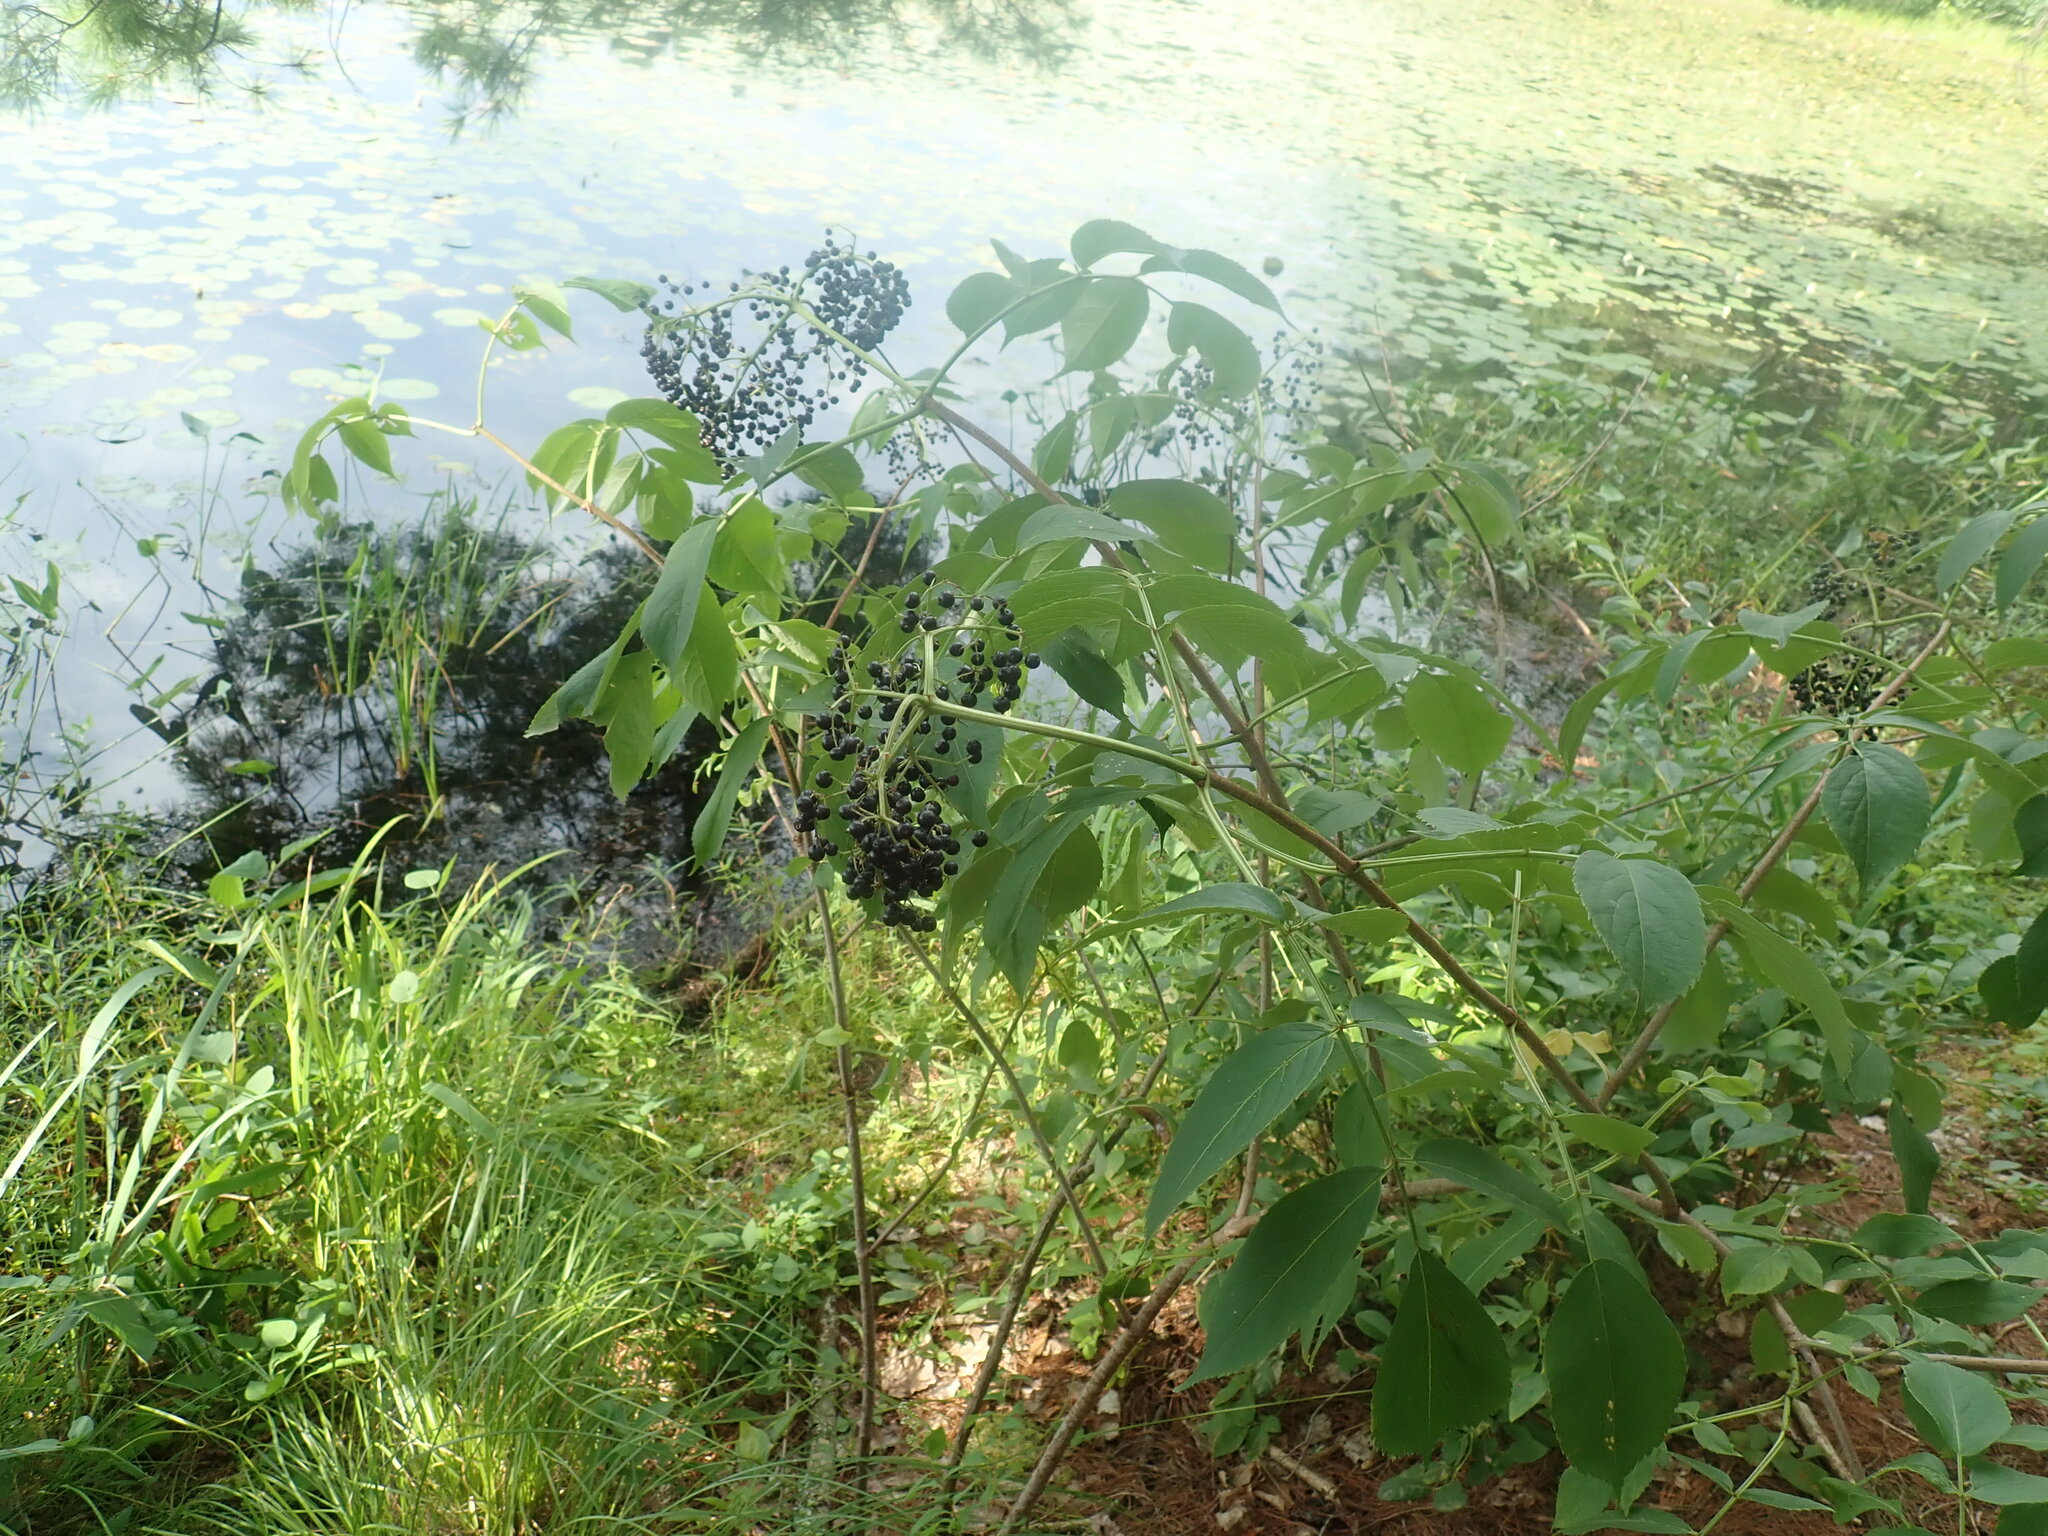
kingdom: Plantae
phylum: Tracheophyta
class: Magnoliopsida
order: Dipsacales
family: Viburnaceae
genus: Sambucus
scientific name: Sambucus canadensis
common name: American elder
